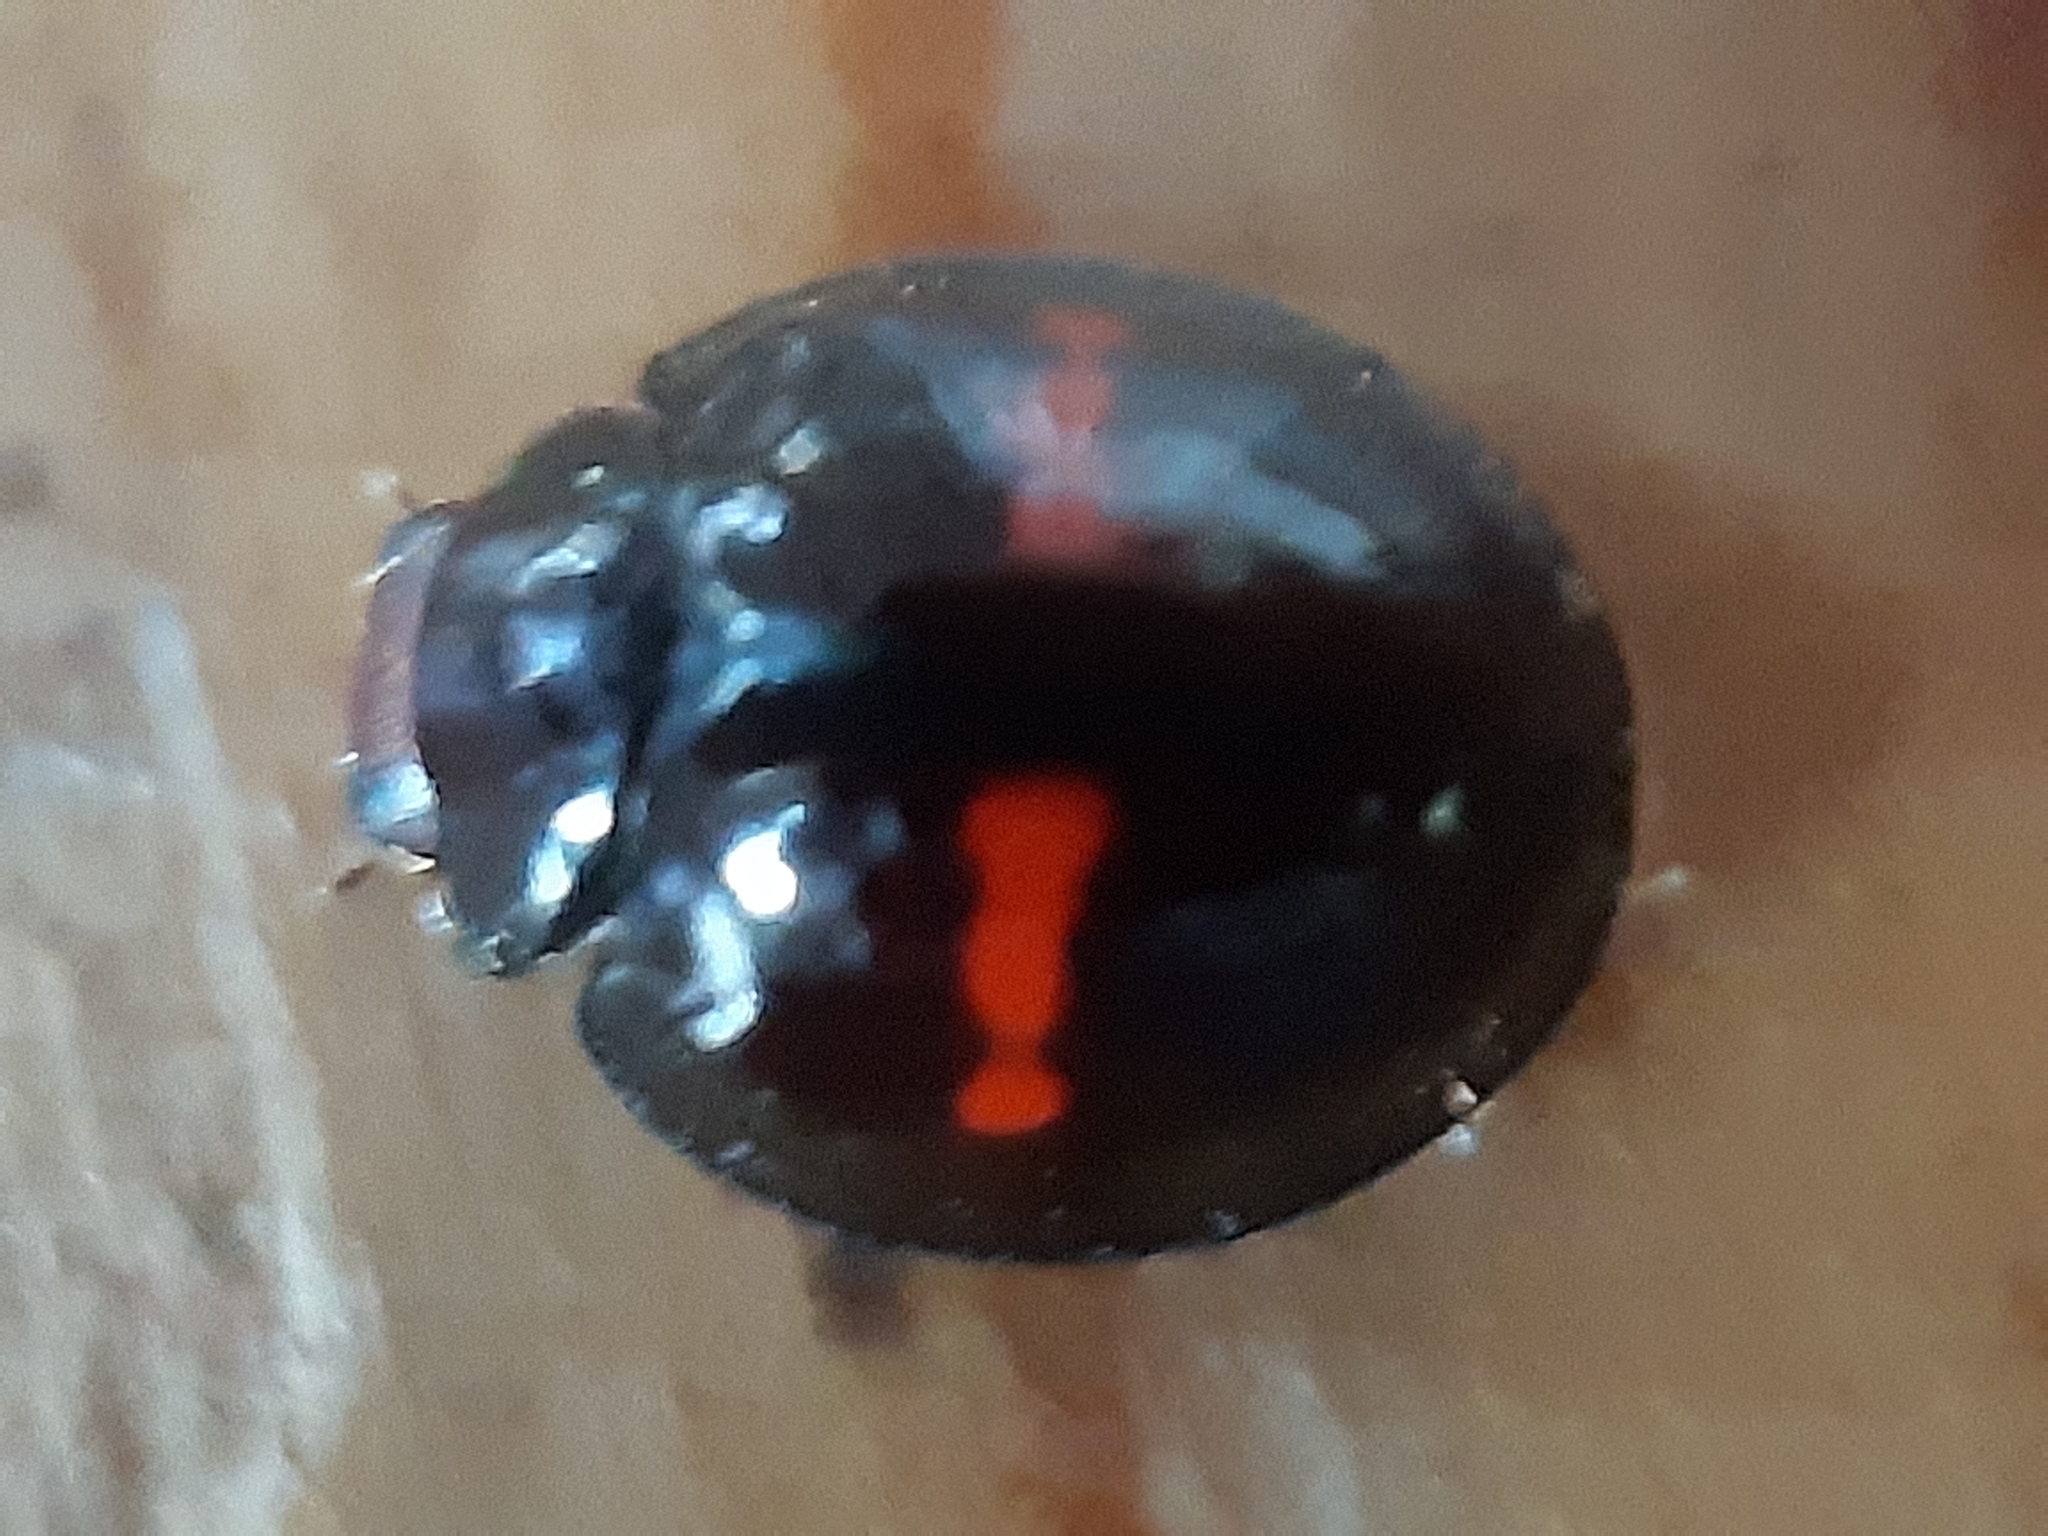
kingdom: Animalia
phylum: Arthropoda
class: Insecta
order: Coleoptera
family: Coccinellidae
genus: Chilocorus
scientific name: Chilocorus bipustulatus
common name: Heather ladybird
